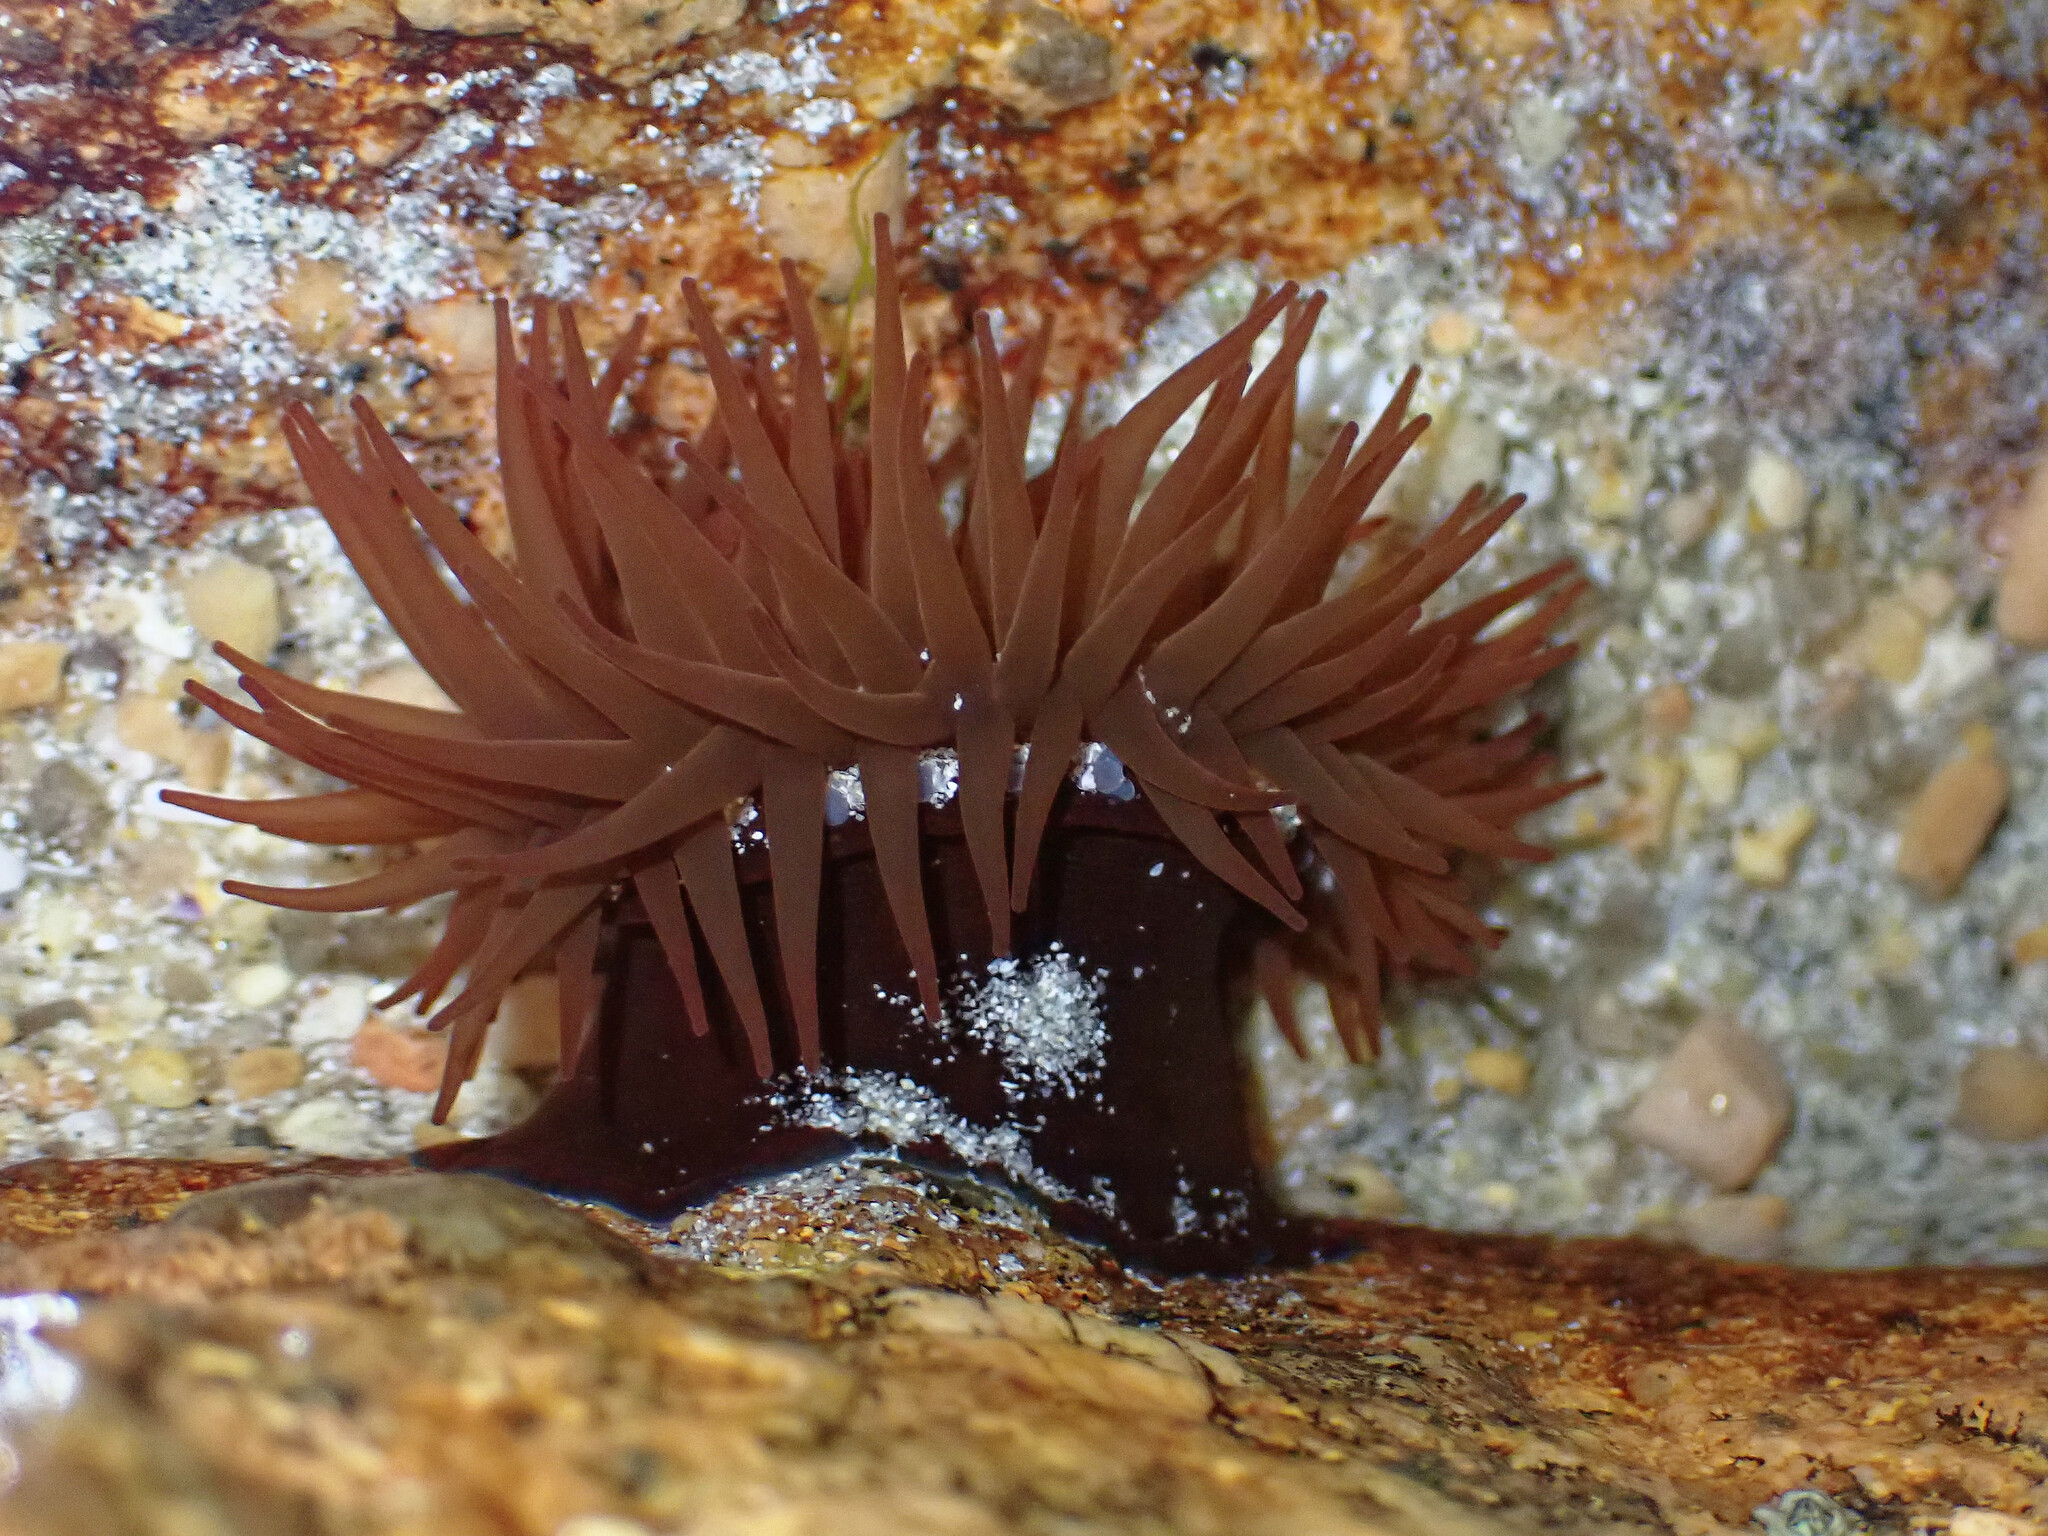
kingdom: Animalia
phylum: Cnidaria
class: Anthozoa
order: Actiniaria
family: Actiniidae
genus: Actinia
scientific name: Actinia equina
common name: Beadlet anemone
